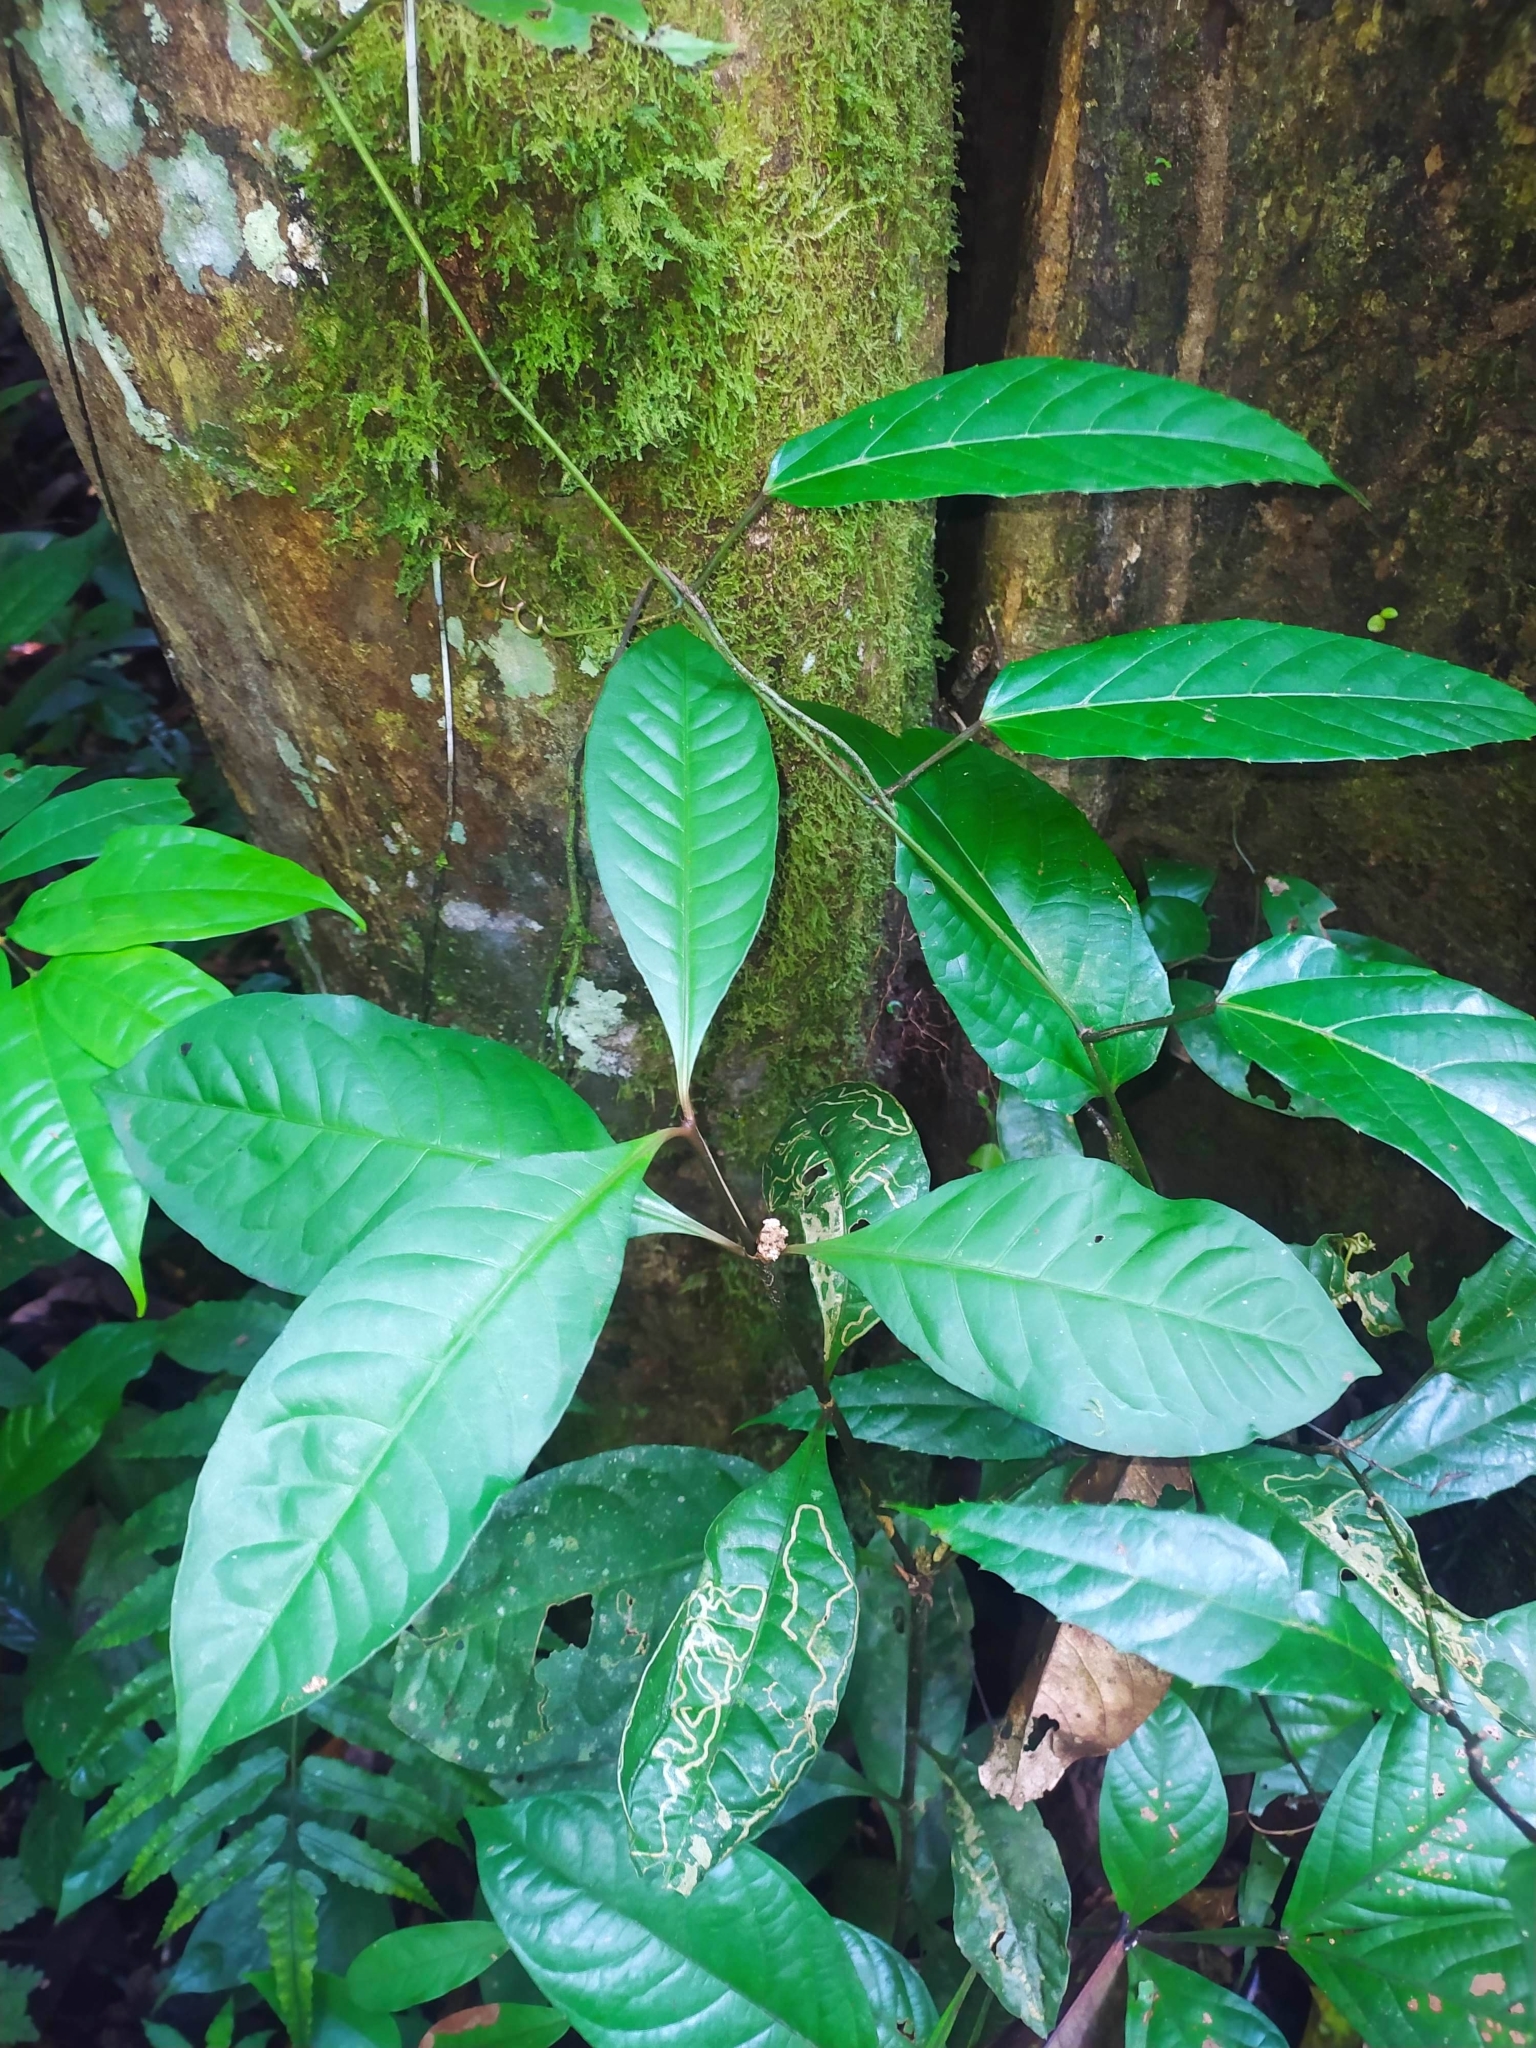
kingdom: Plantae
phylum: Tracheophyta
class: Magnoliopsida
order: Gentianales
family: Rubiaceae
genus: Palicourea
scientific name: Palicourea axillaris
